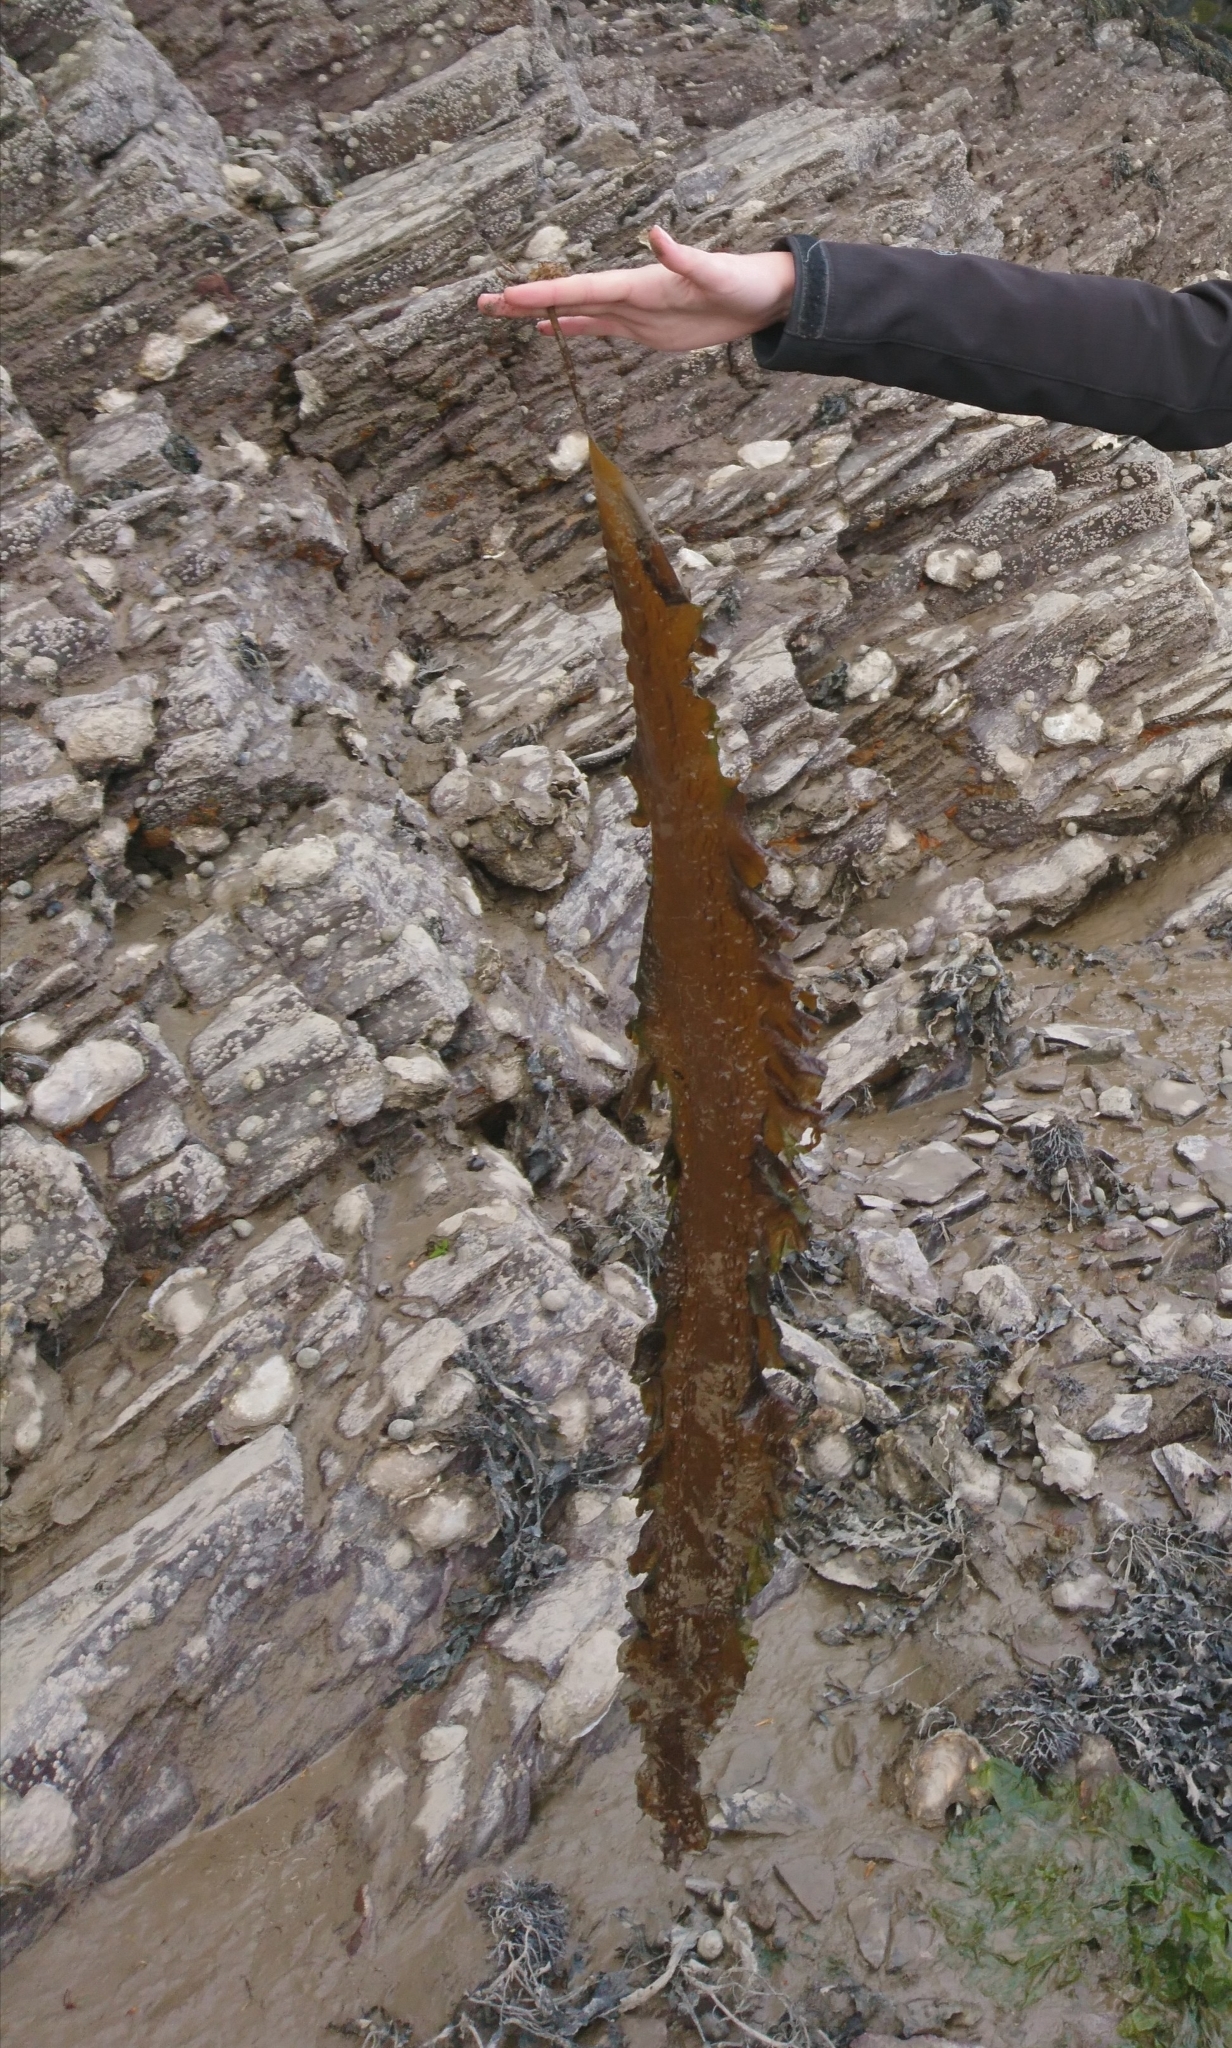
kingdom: Chromista
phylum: Ochrophyta
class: Phaeophyceae
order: Laminariales
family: Laminariaceae
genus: Saccharina
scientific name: Saccharina latissima
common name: Poor man's weather glass
